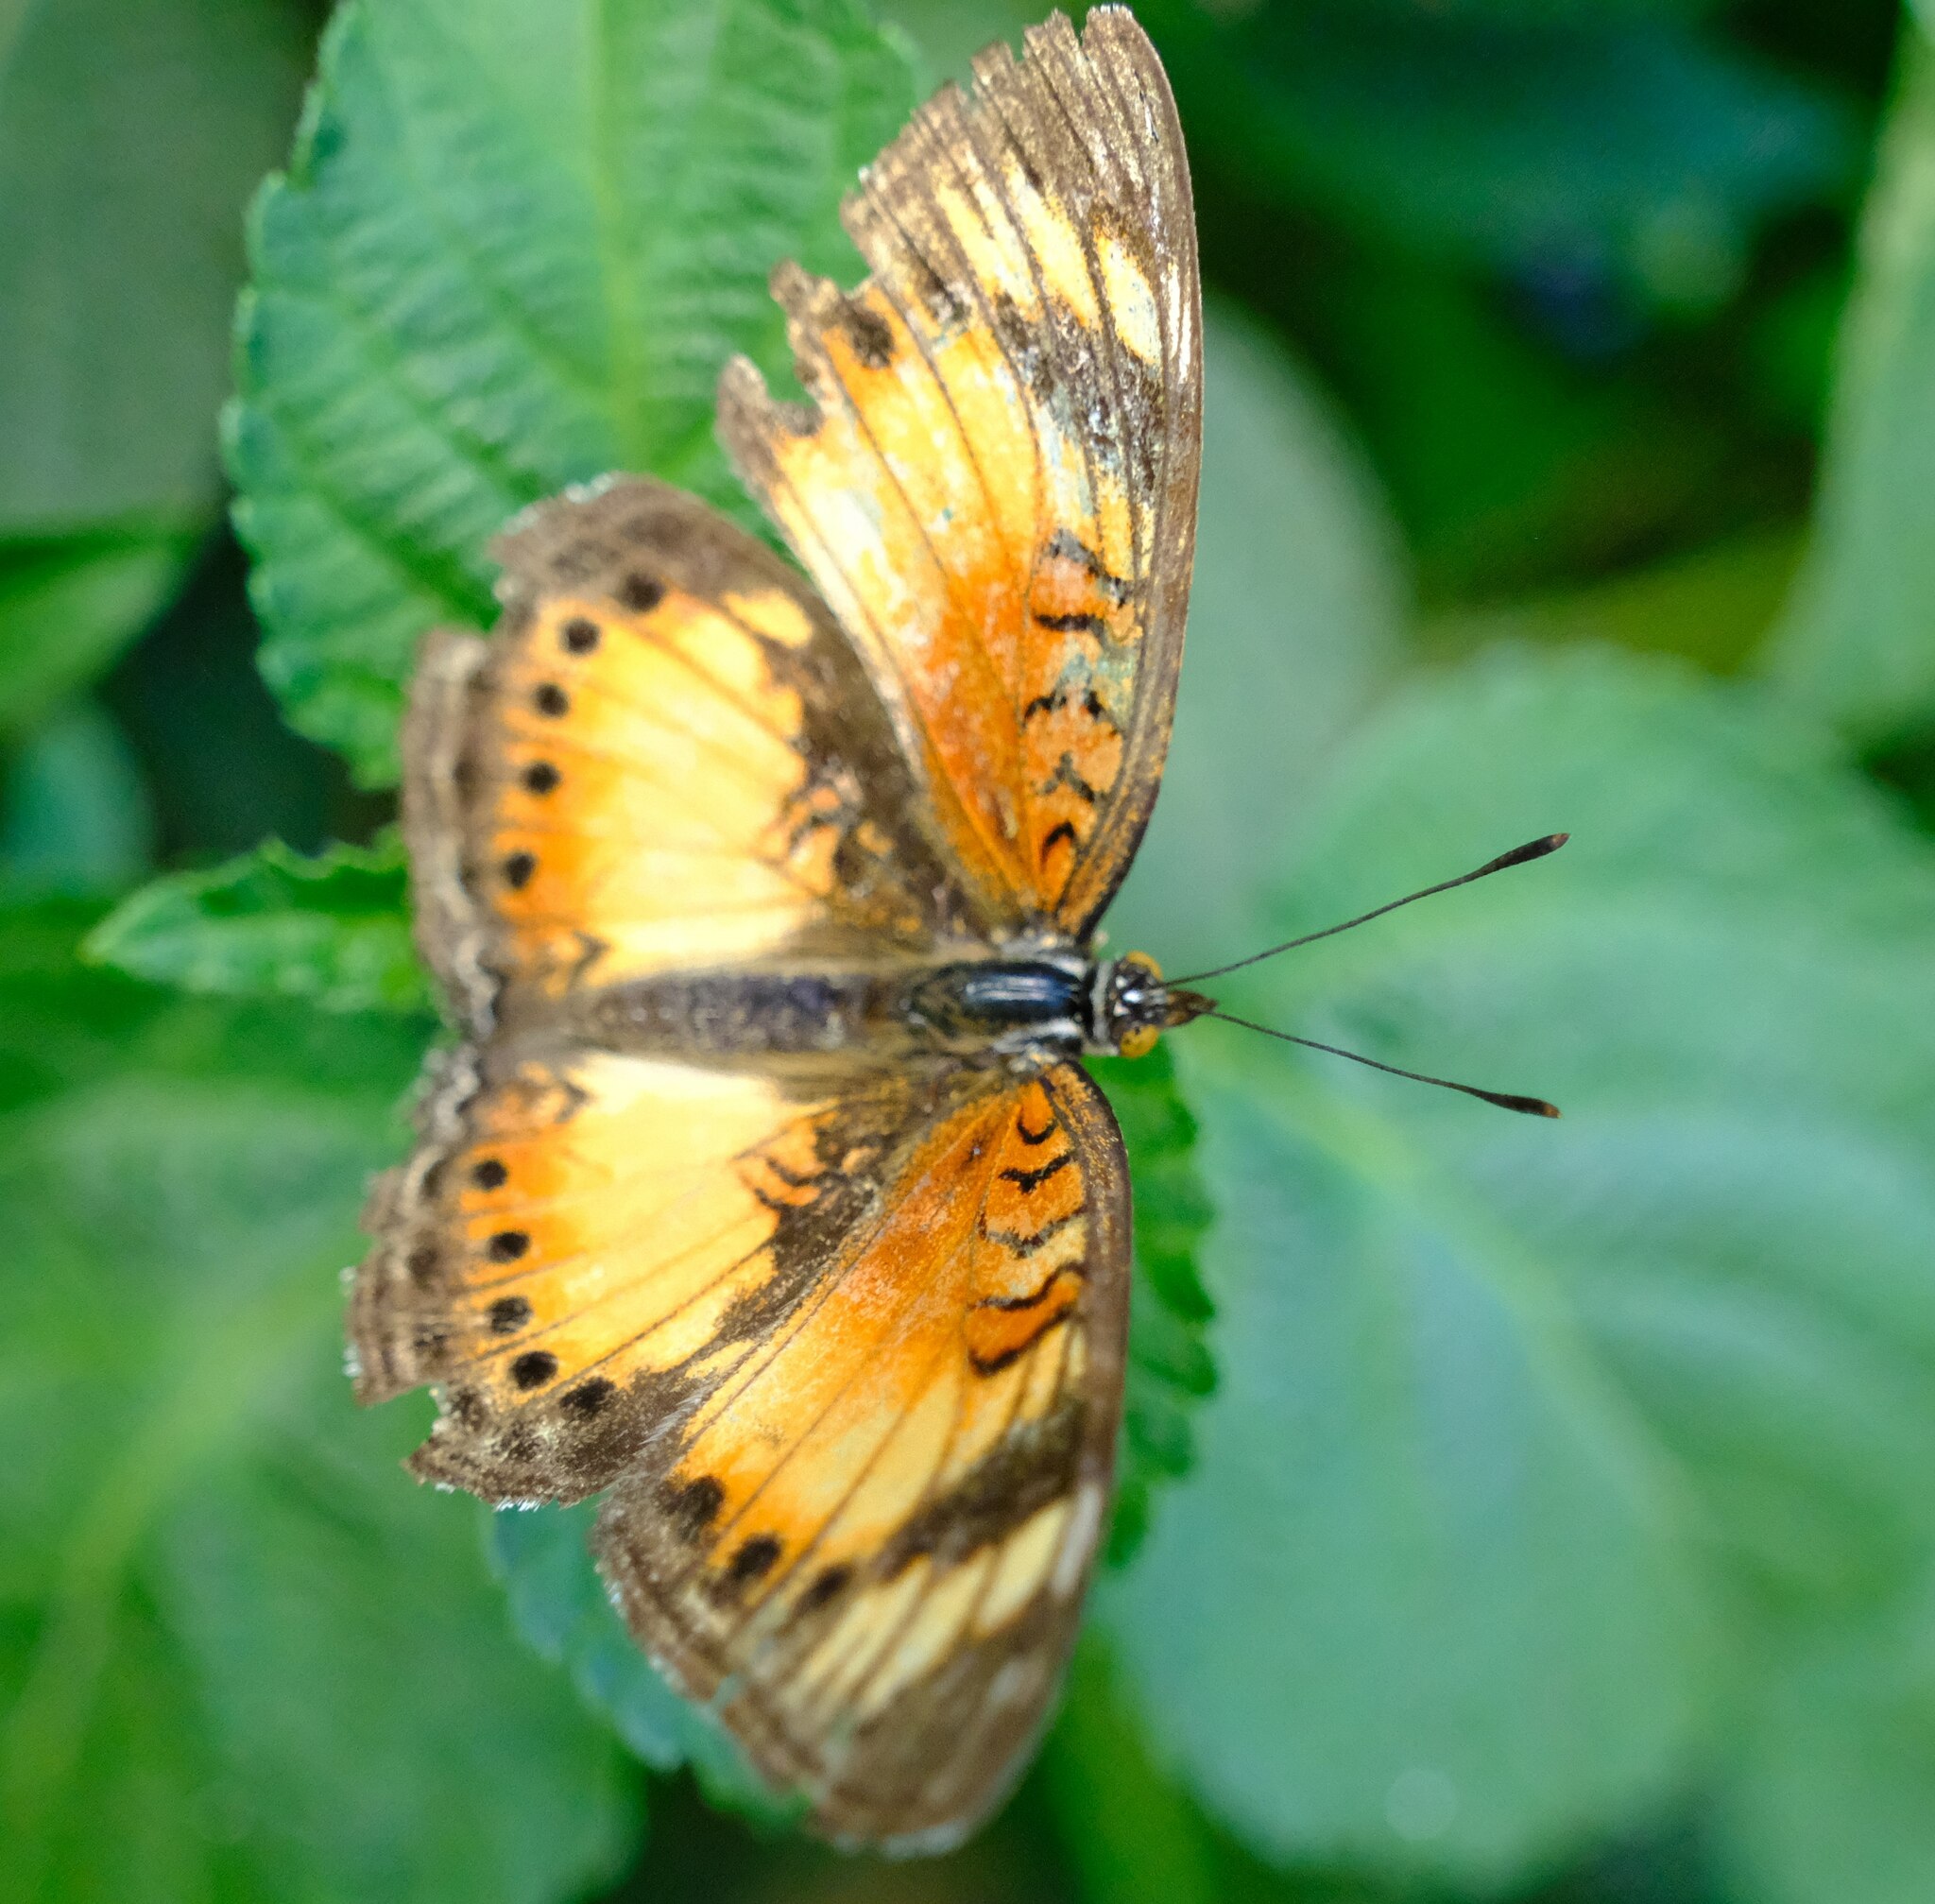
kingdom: Animalia
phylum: Arthropoda
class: Insecta
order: Lepidoptera
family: Nymphalidae
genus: Junonia
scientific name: Junonia sophia
